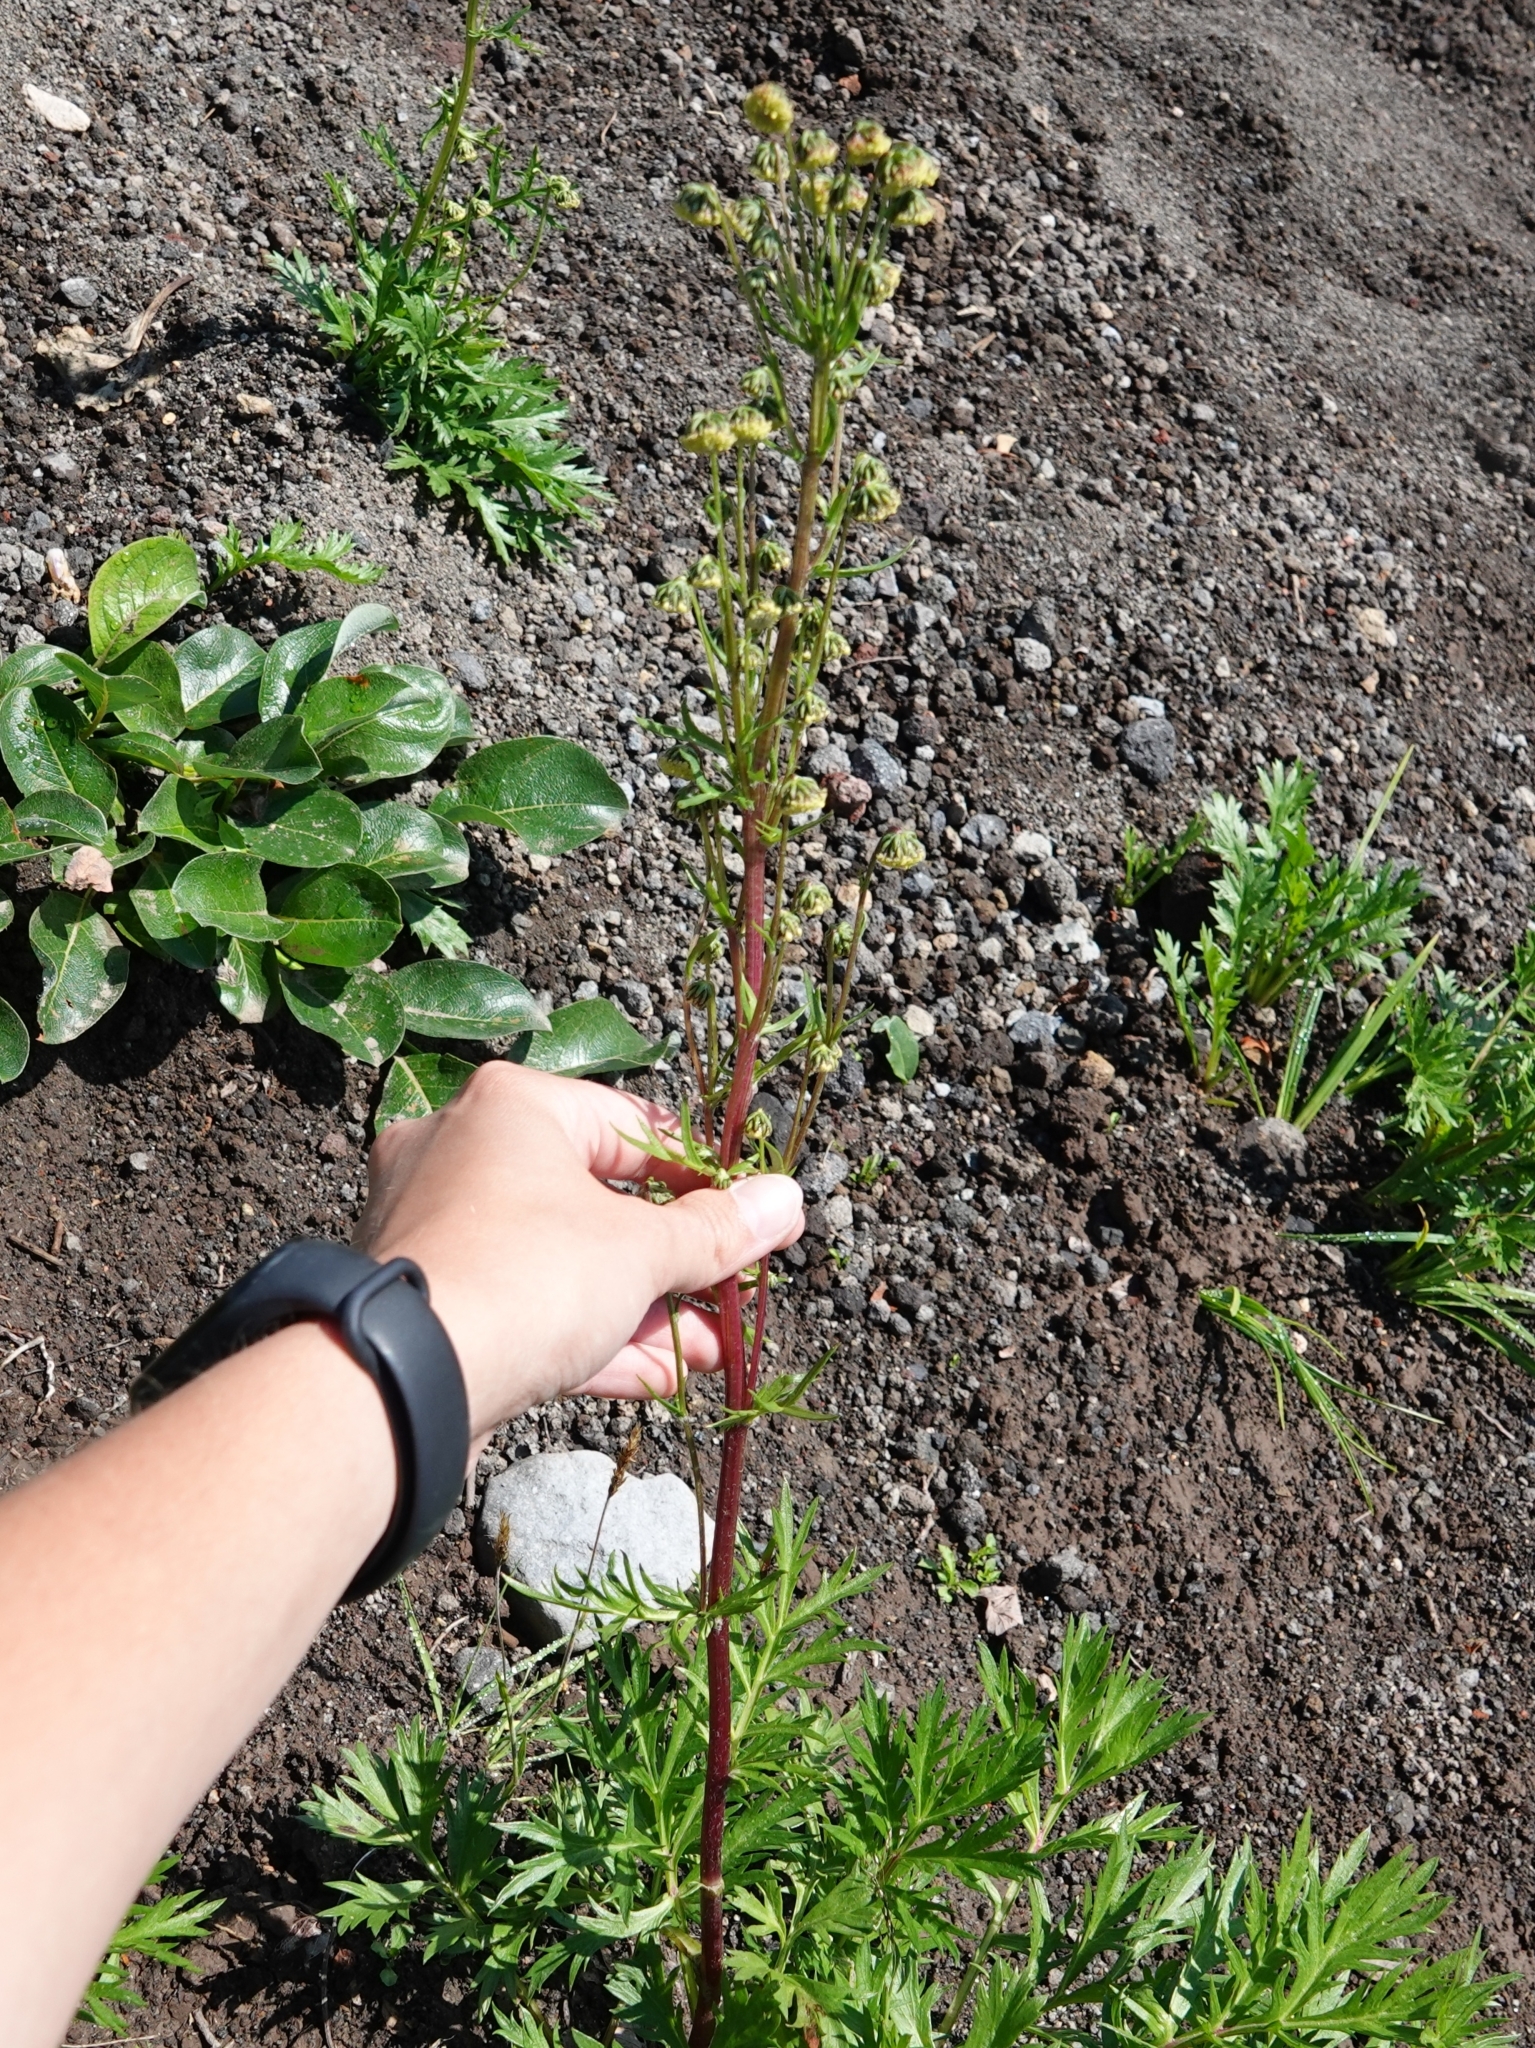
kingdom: Plantae
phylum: Tracheophyta
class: Magnoliopsida
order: Asterales
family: Asteraceae
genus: Artemisia
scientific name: Artemisia arctica
